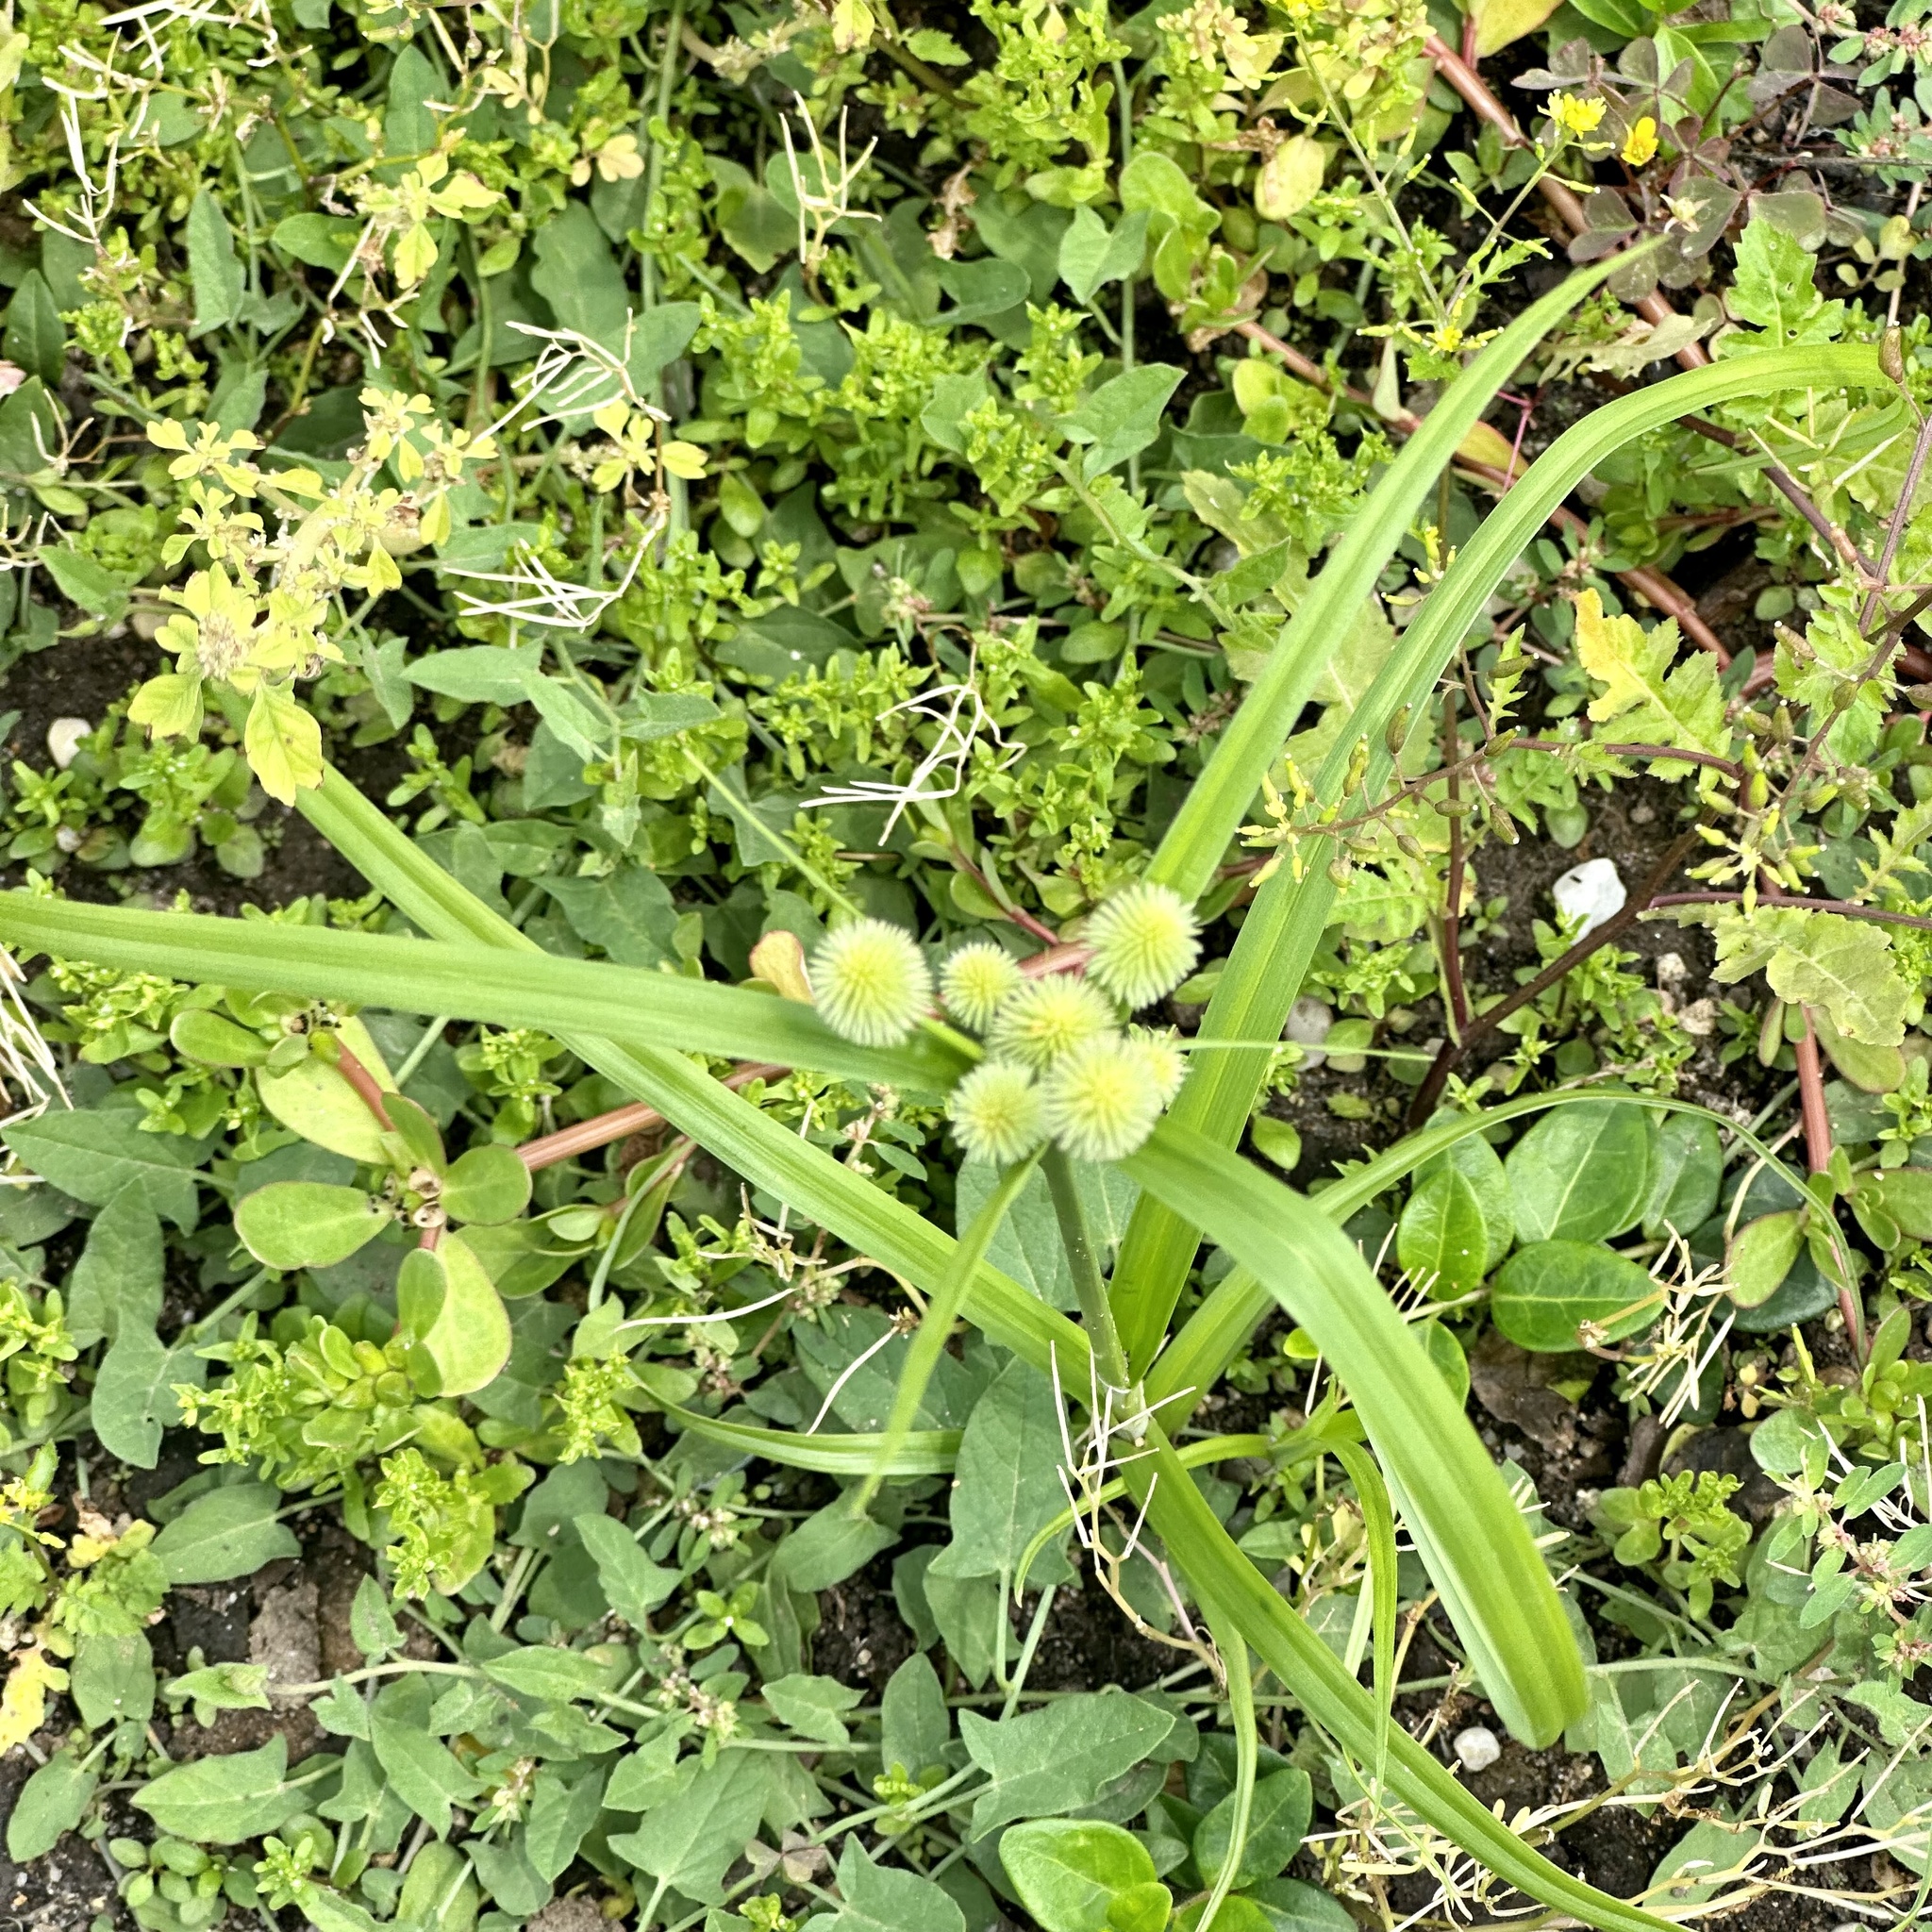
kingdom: Plantae
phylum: Tracheophyta
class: Liliopsida
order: Poales
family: Cyperaceae
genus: Cyperus
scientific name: Cyperus echinatus
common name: Teasel sedge
